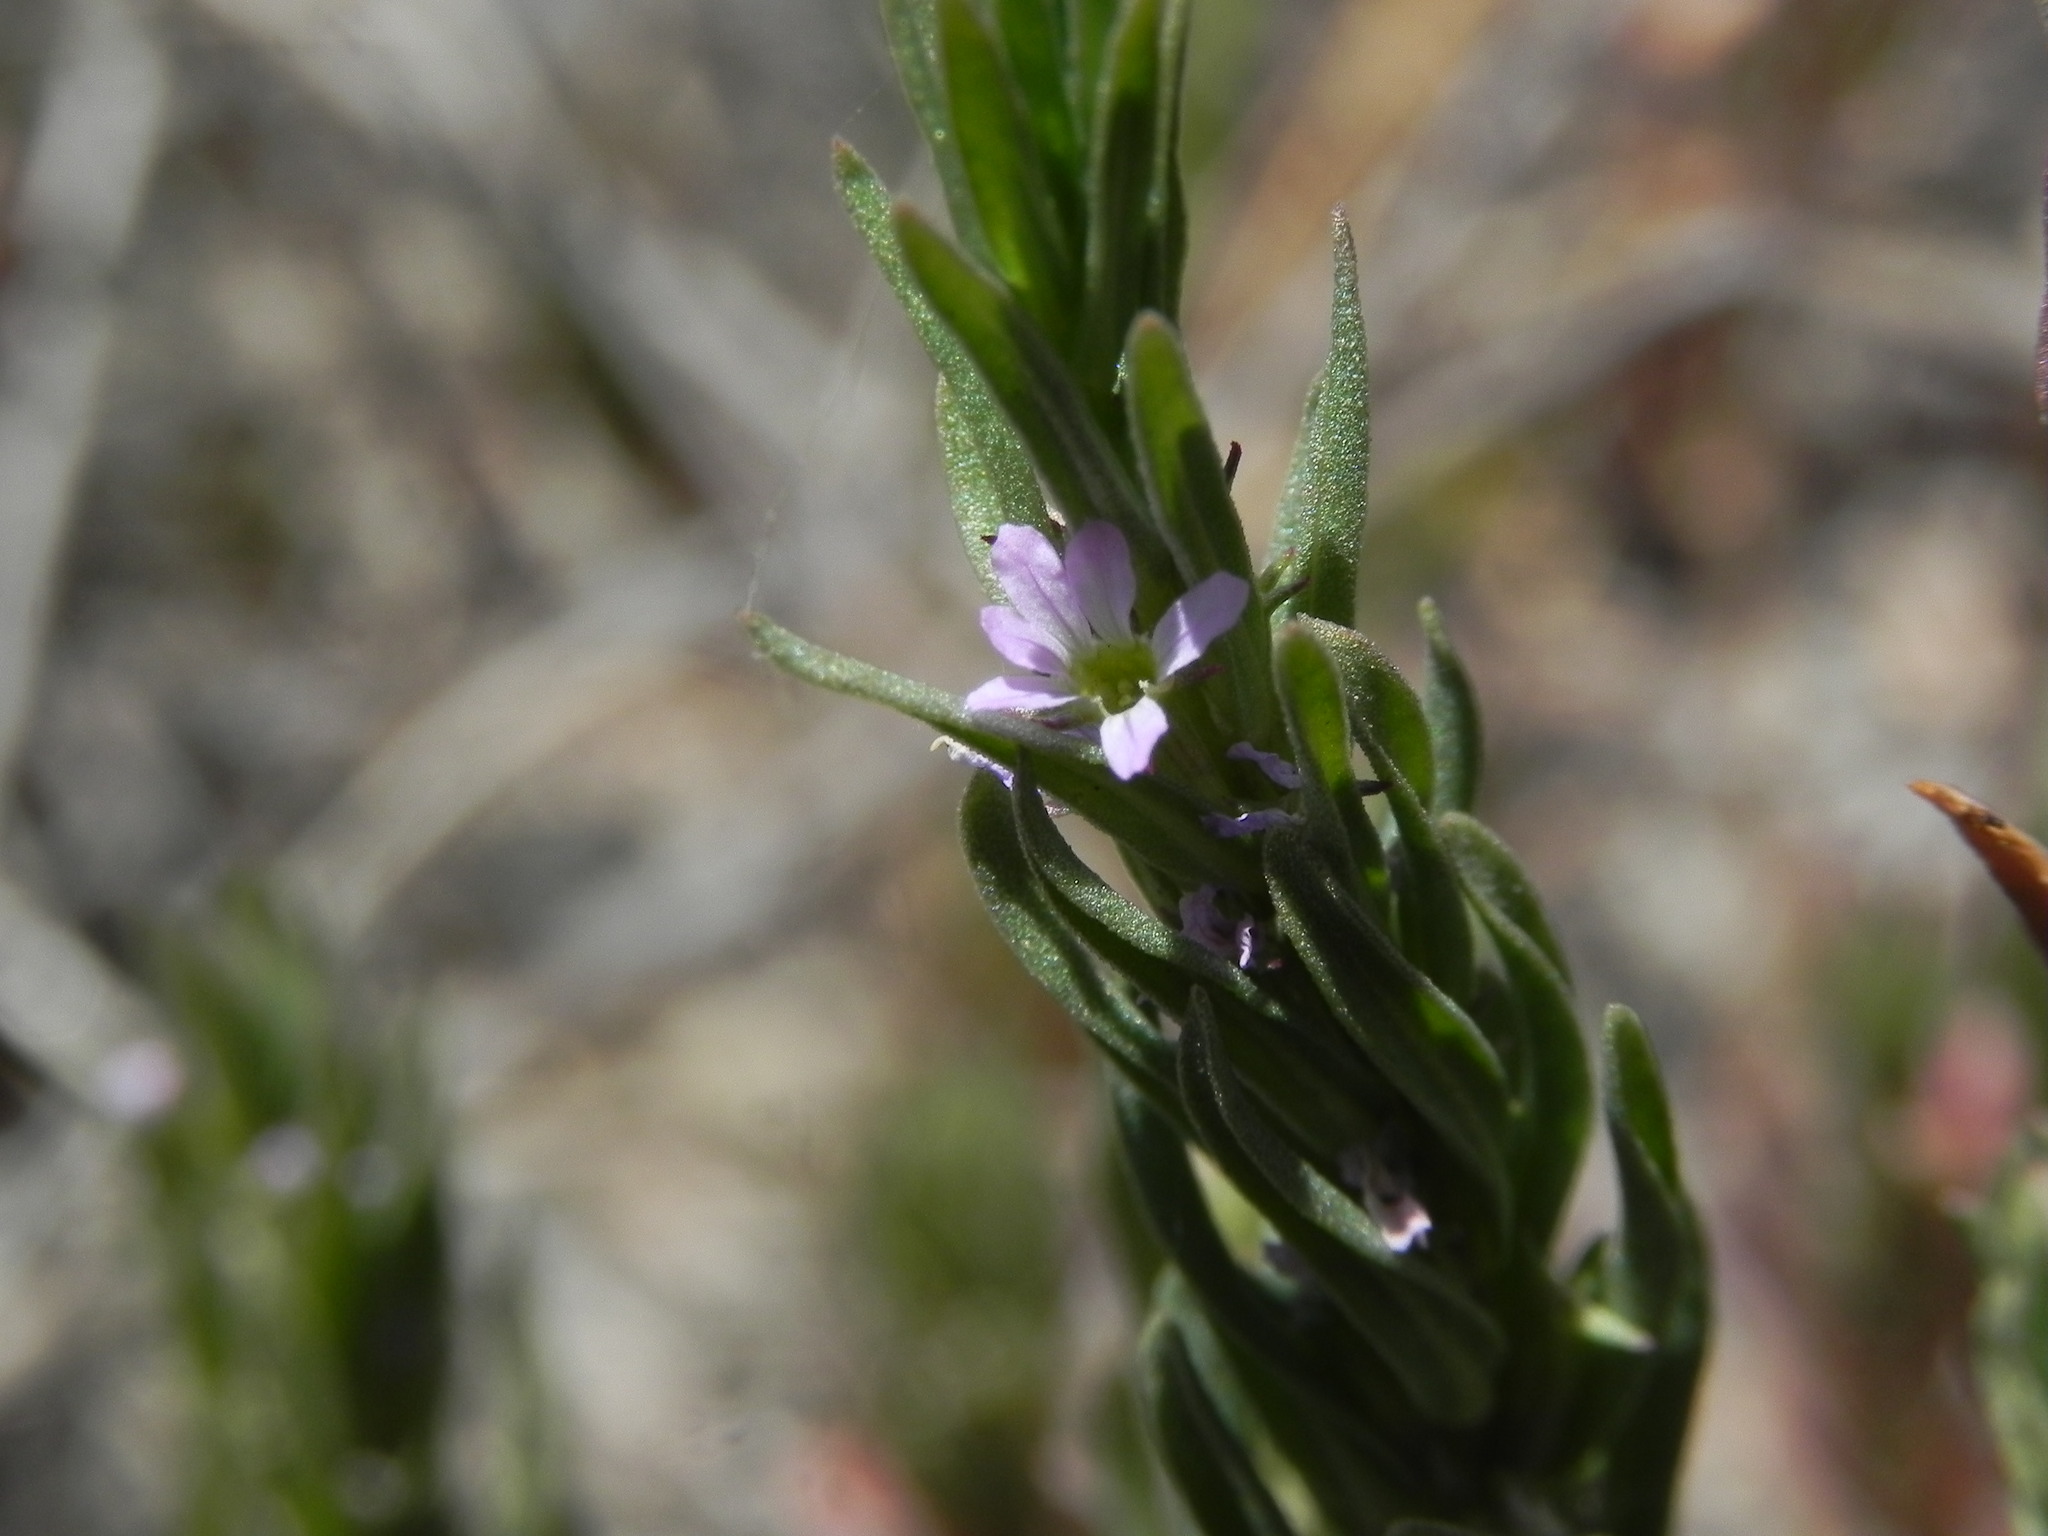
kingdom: Plantae
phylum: Tracheophyta
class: Magnoliopsida
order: Myrtales
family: Lythraceae
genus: Lythrum
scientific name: Lythrum hyssopifolia
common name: Grass-poly
